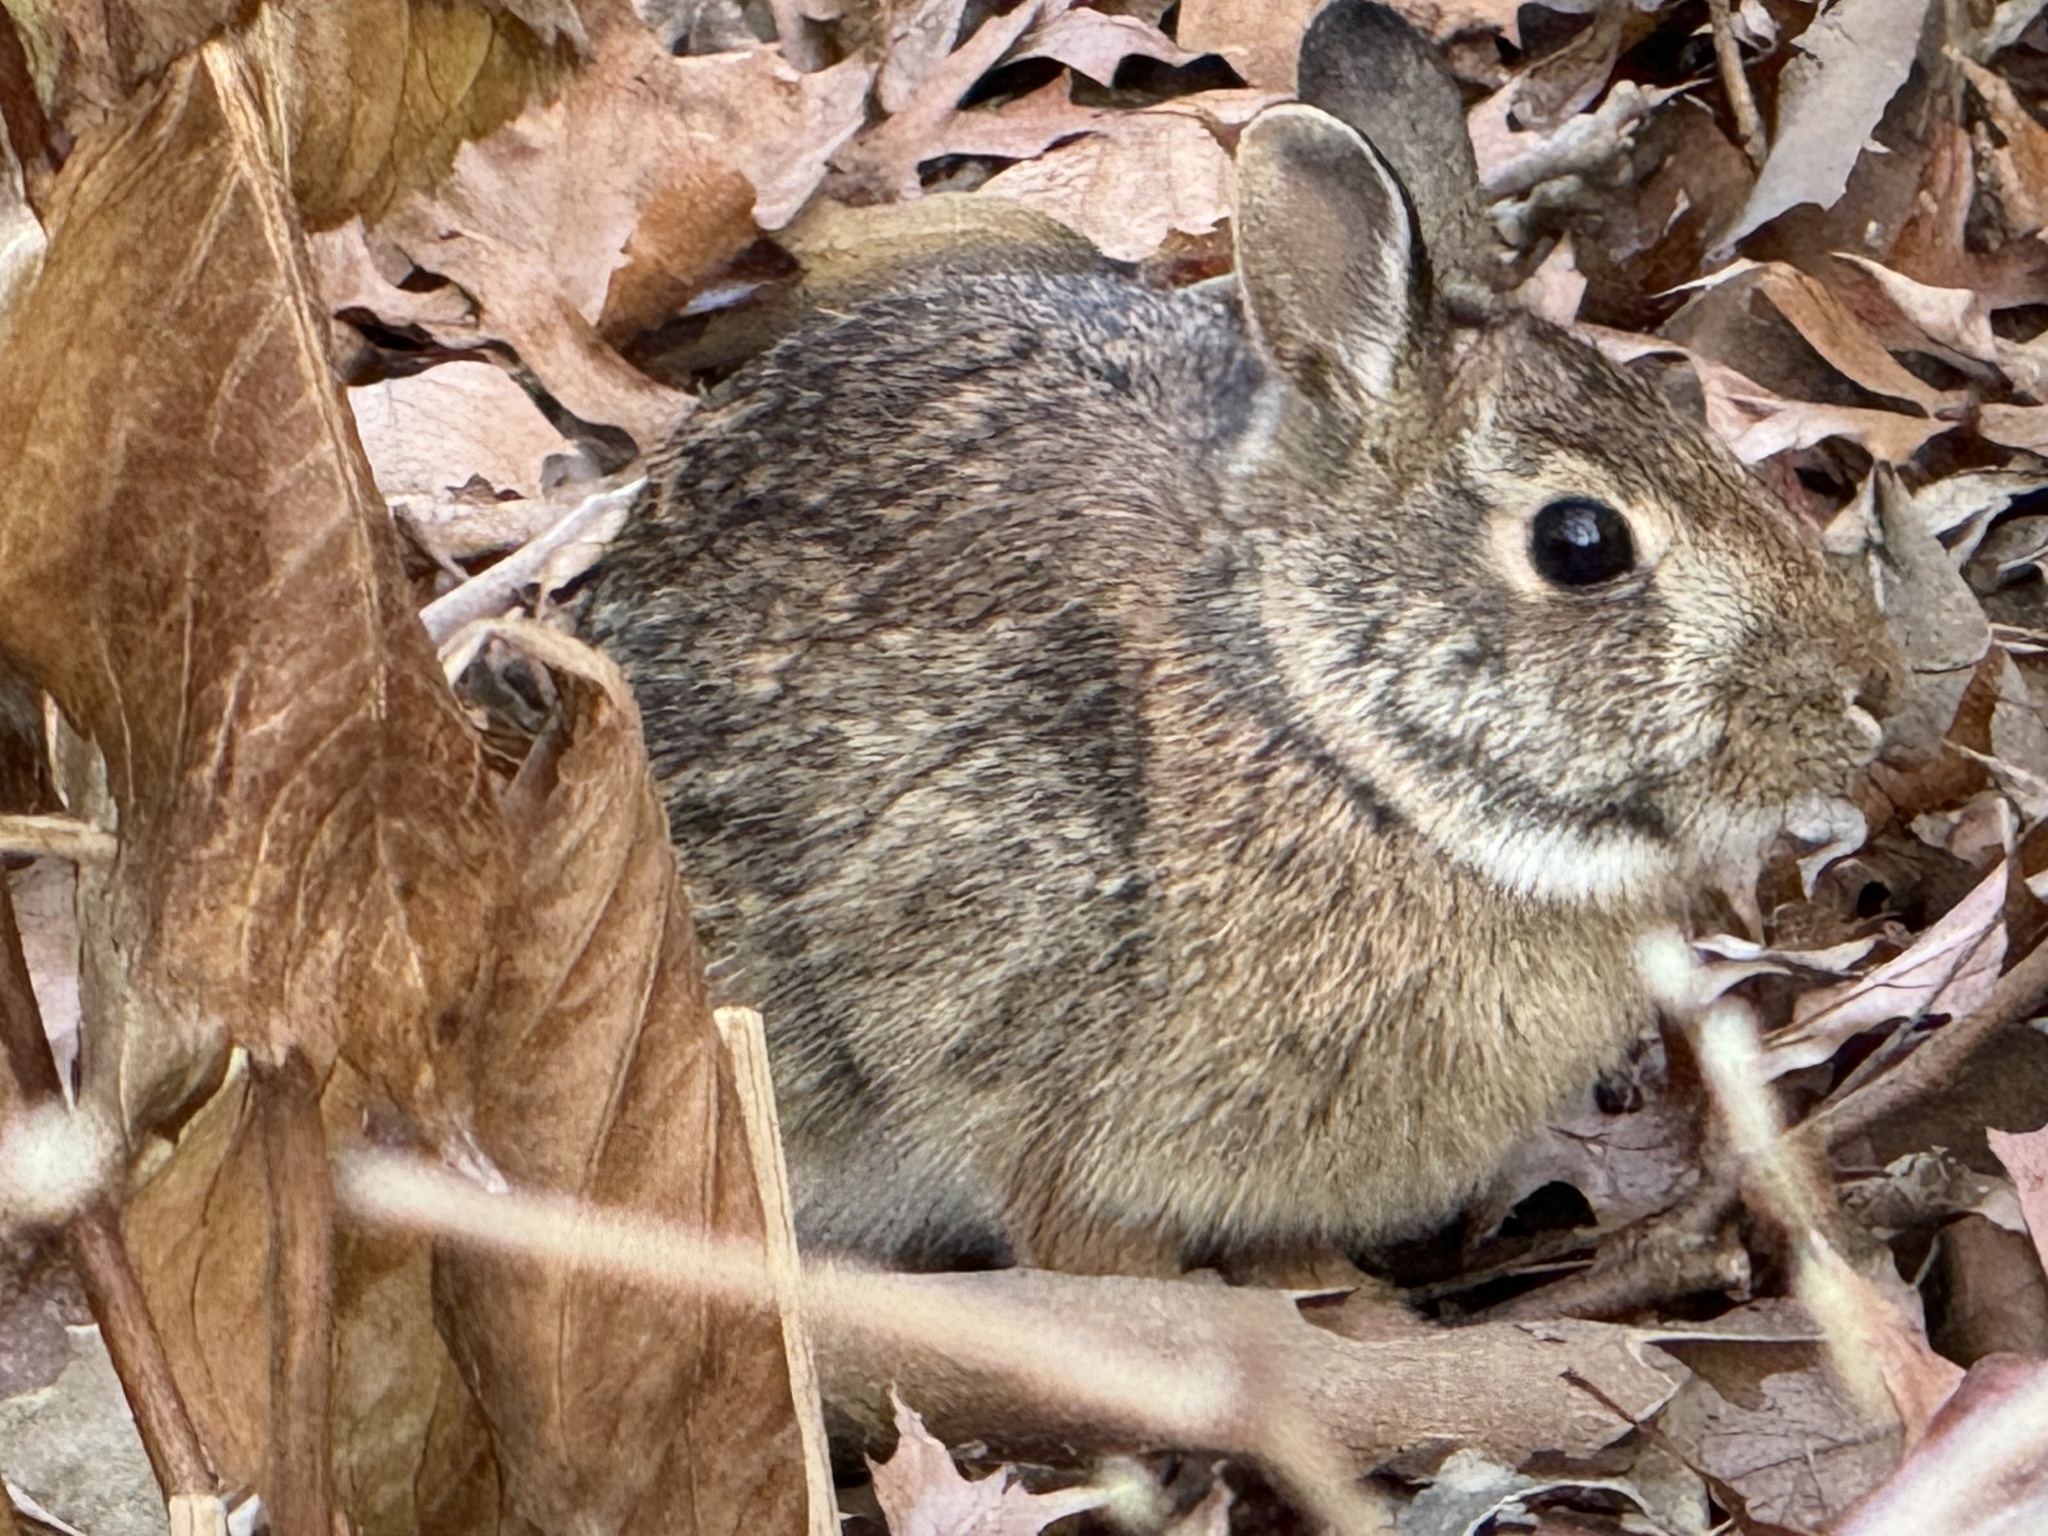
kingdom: Animalia
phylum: Chordata
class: Mammalia
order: Lagomorpha
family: Leporidae
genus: Sylvilagus
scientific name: Sylvilagus floridanus
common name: Eastern cottontail
